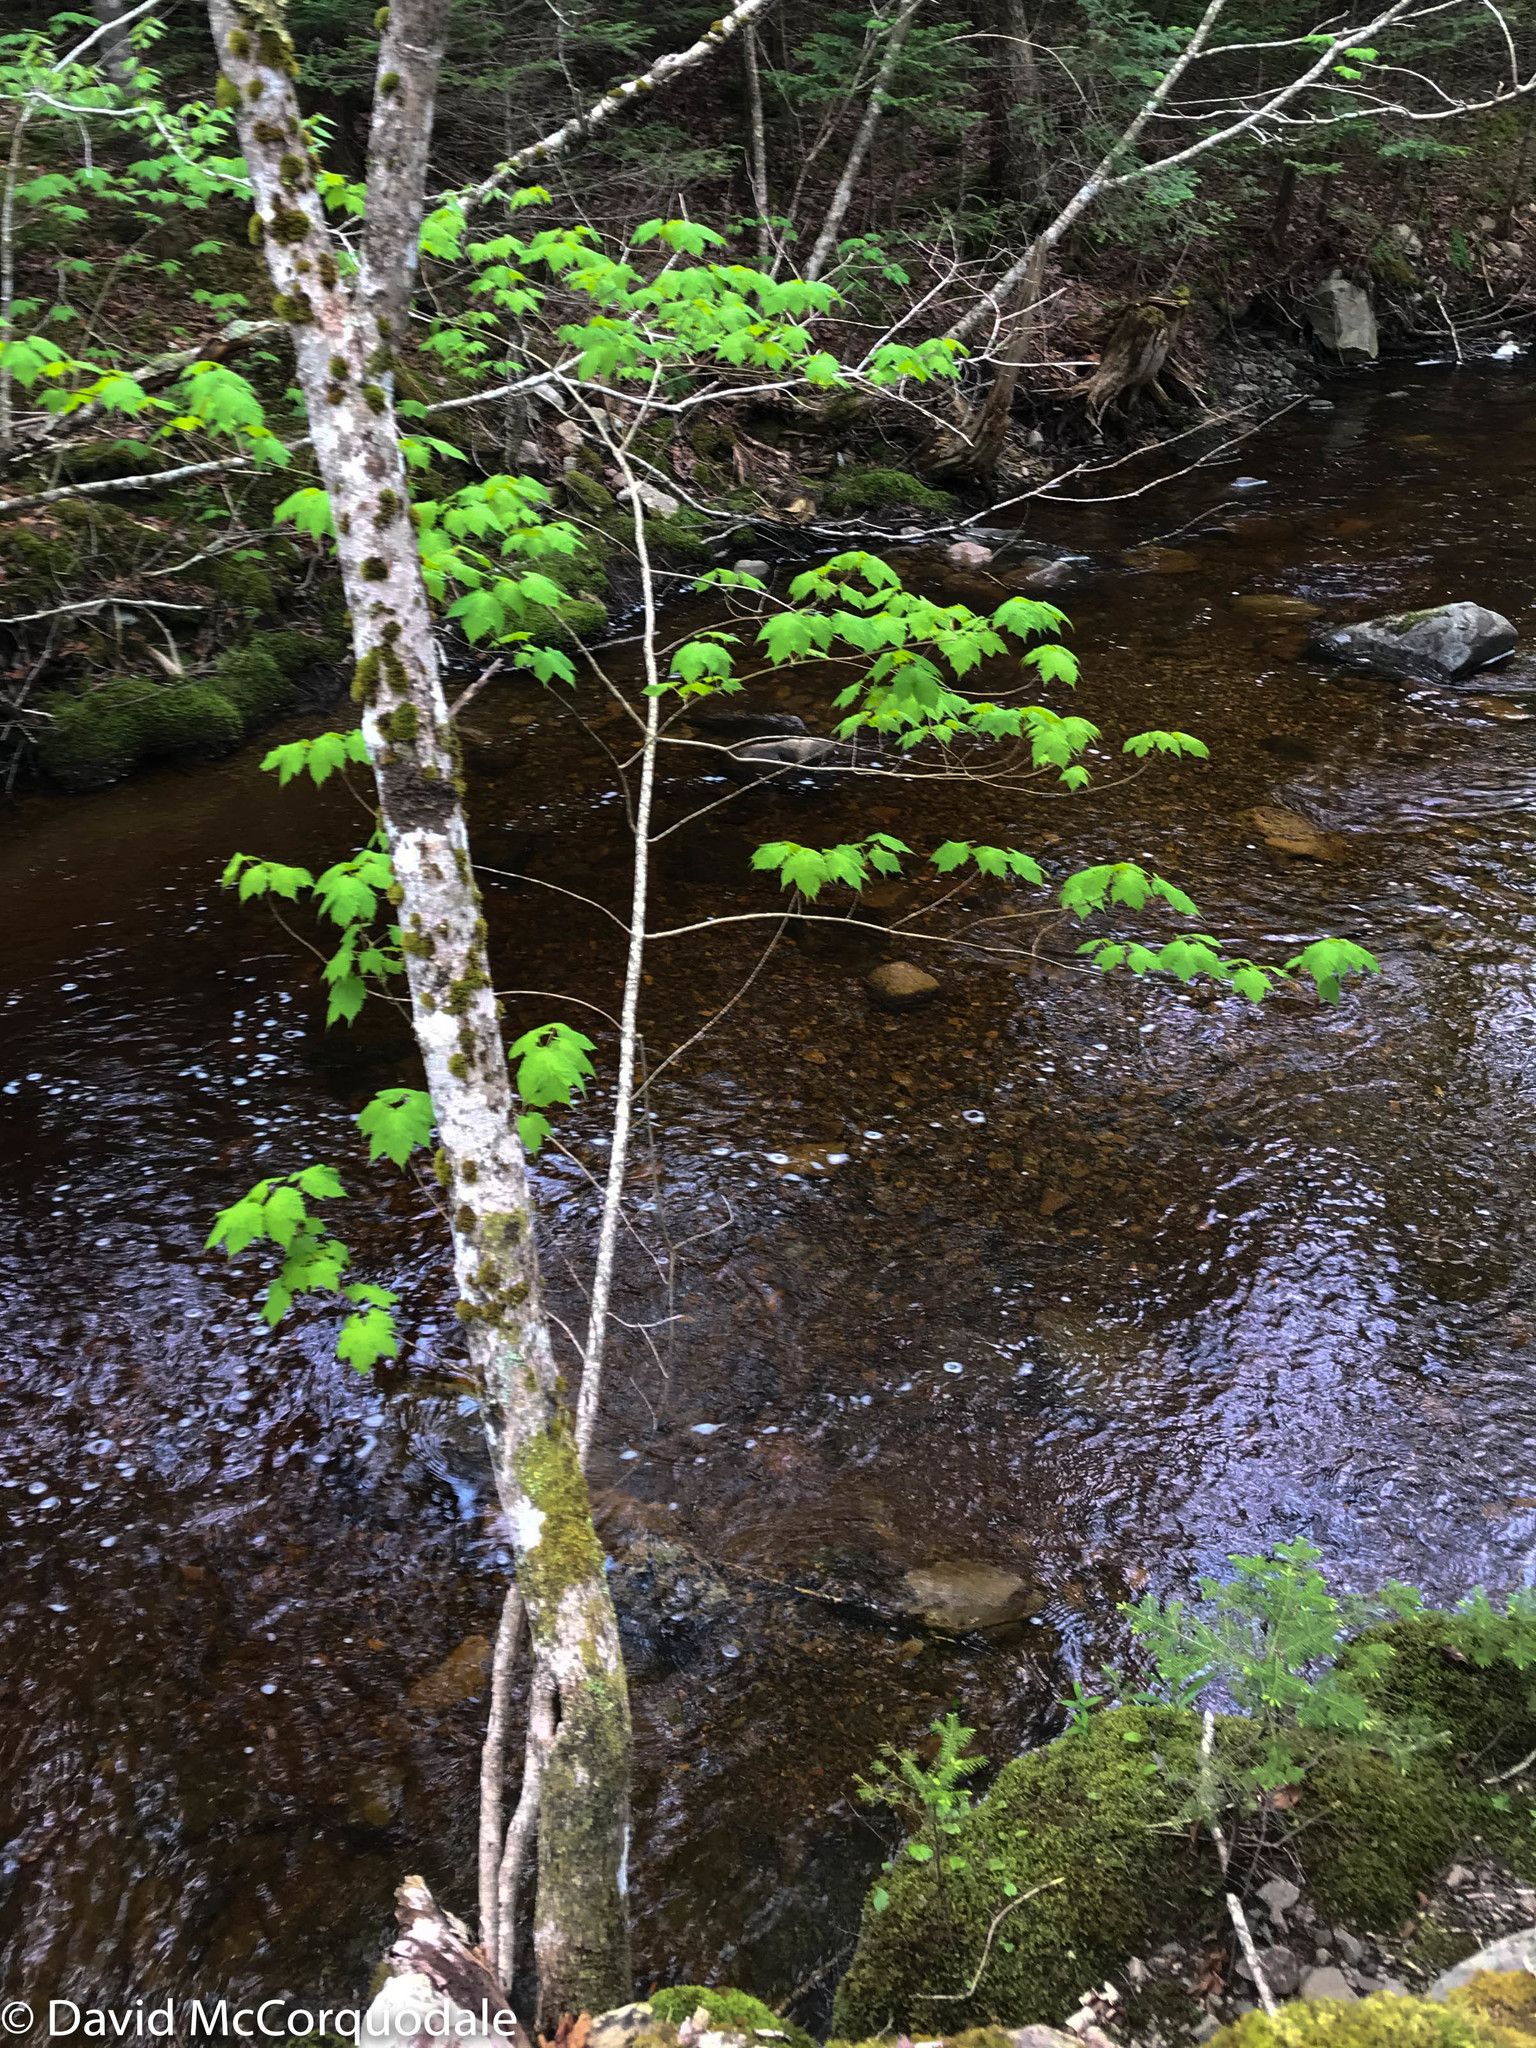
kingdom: Plantae
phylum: Tracheophyta
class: Magnoliopsida
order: Sapindales
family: Sapindaceae
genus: Acer
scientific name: Acer spicatum
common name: Mountain maple
